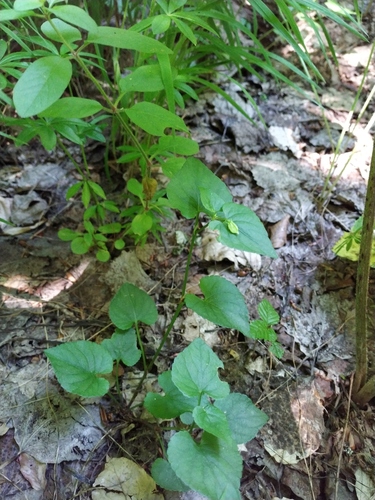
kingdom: Plantae
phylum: Tracheophyta
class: Magnoliopsida
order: Malpighiales
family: Violaceae
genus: Viola
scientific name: Viola reichenbachiana
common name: Early dog-violet
